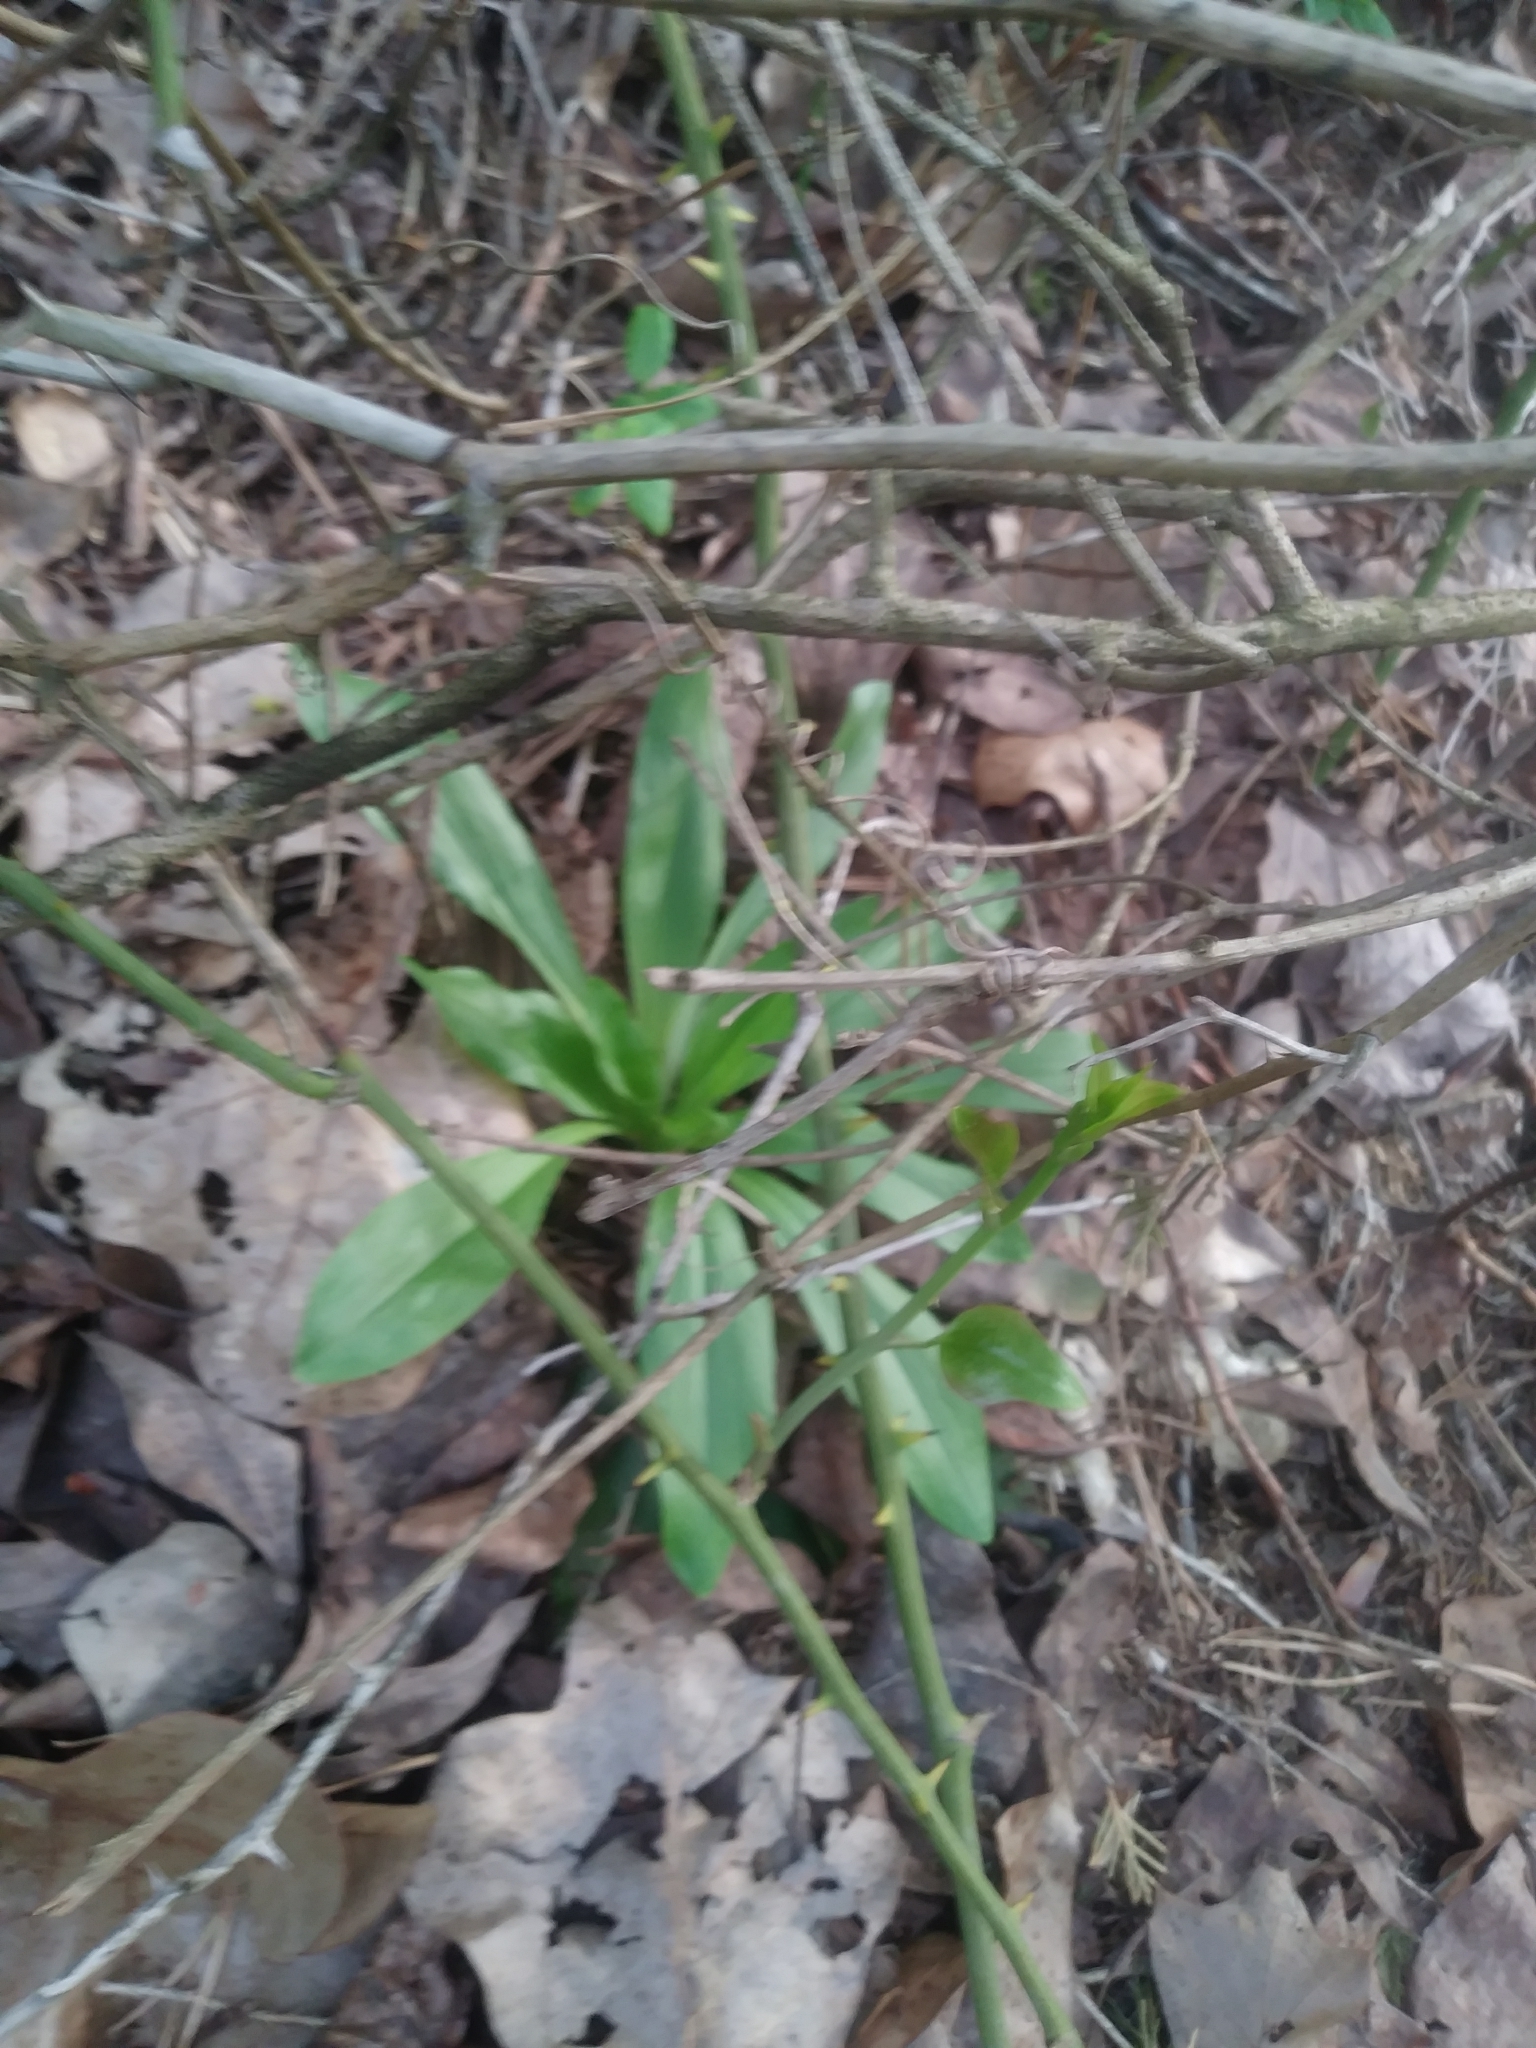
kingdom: Plantae
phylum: Tracheophyta
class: Liliopsida
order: Liliales
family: Melanthiaceae
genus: Chamaelirium
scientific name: Chamaelirium luteum
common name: Fairy-wand
